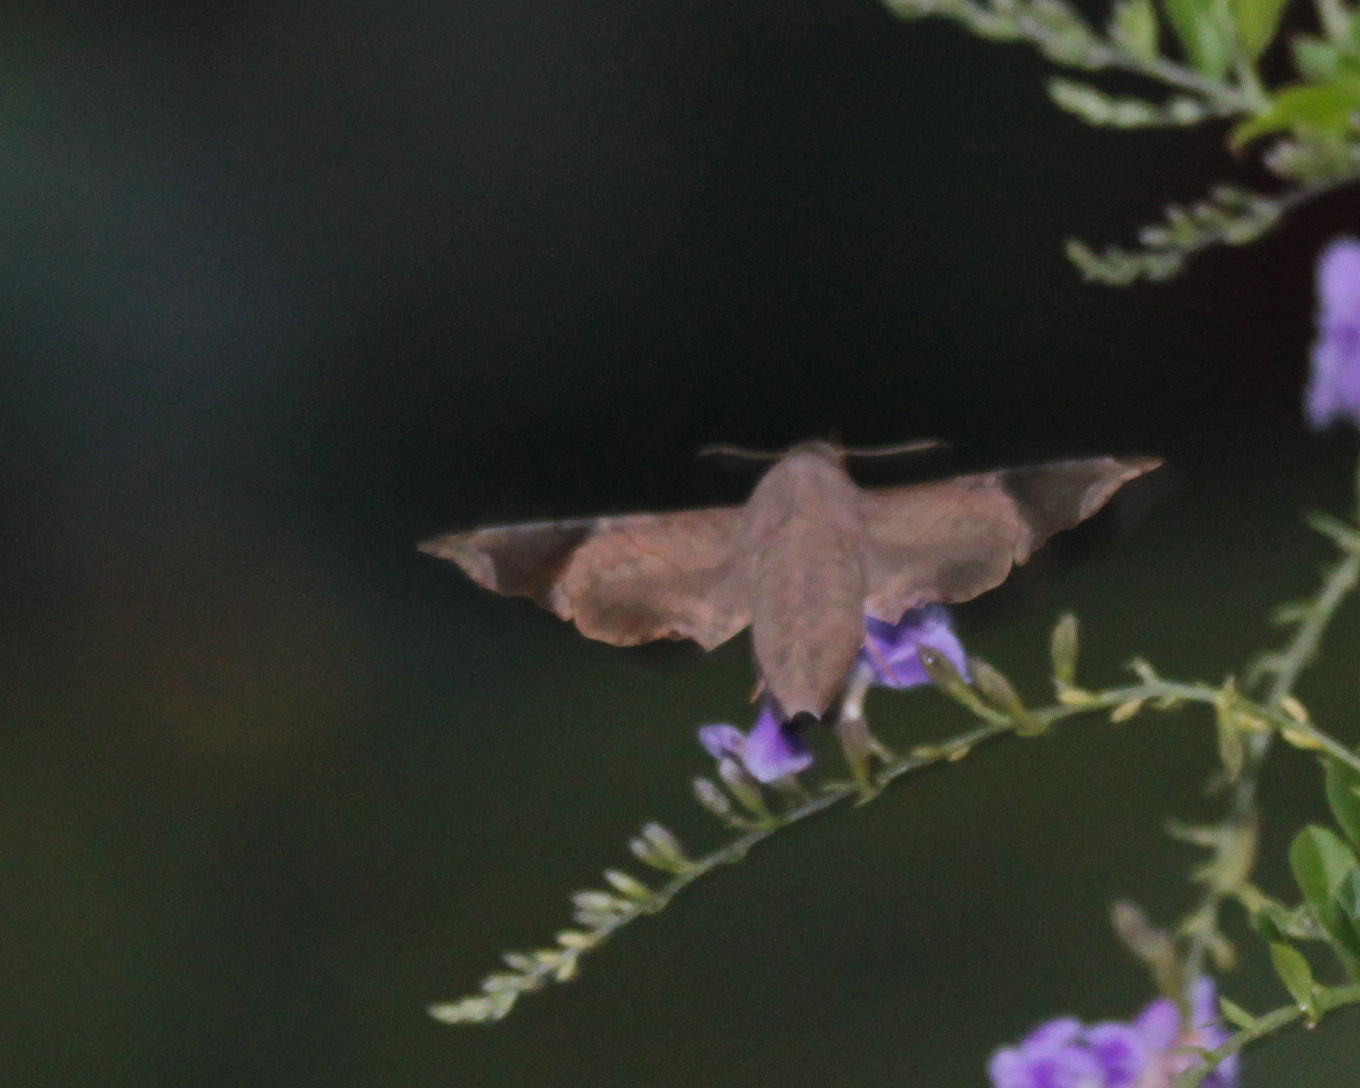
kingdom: Animalia
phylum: Arthropoda
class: Insecta
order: Lepidoptera
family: Sphingidae
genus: Enyo
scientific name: Enyo lugubris
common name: Mournful sphinx
